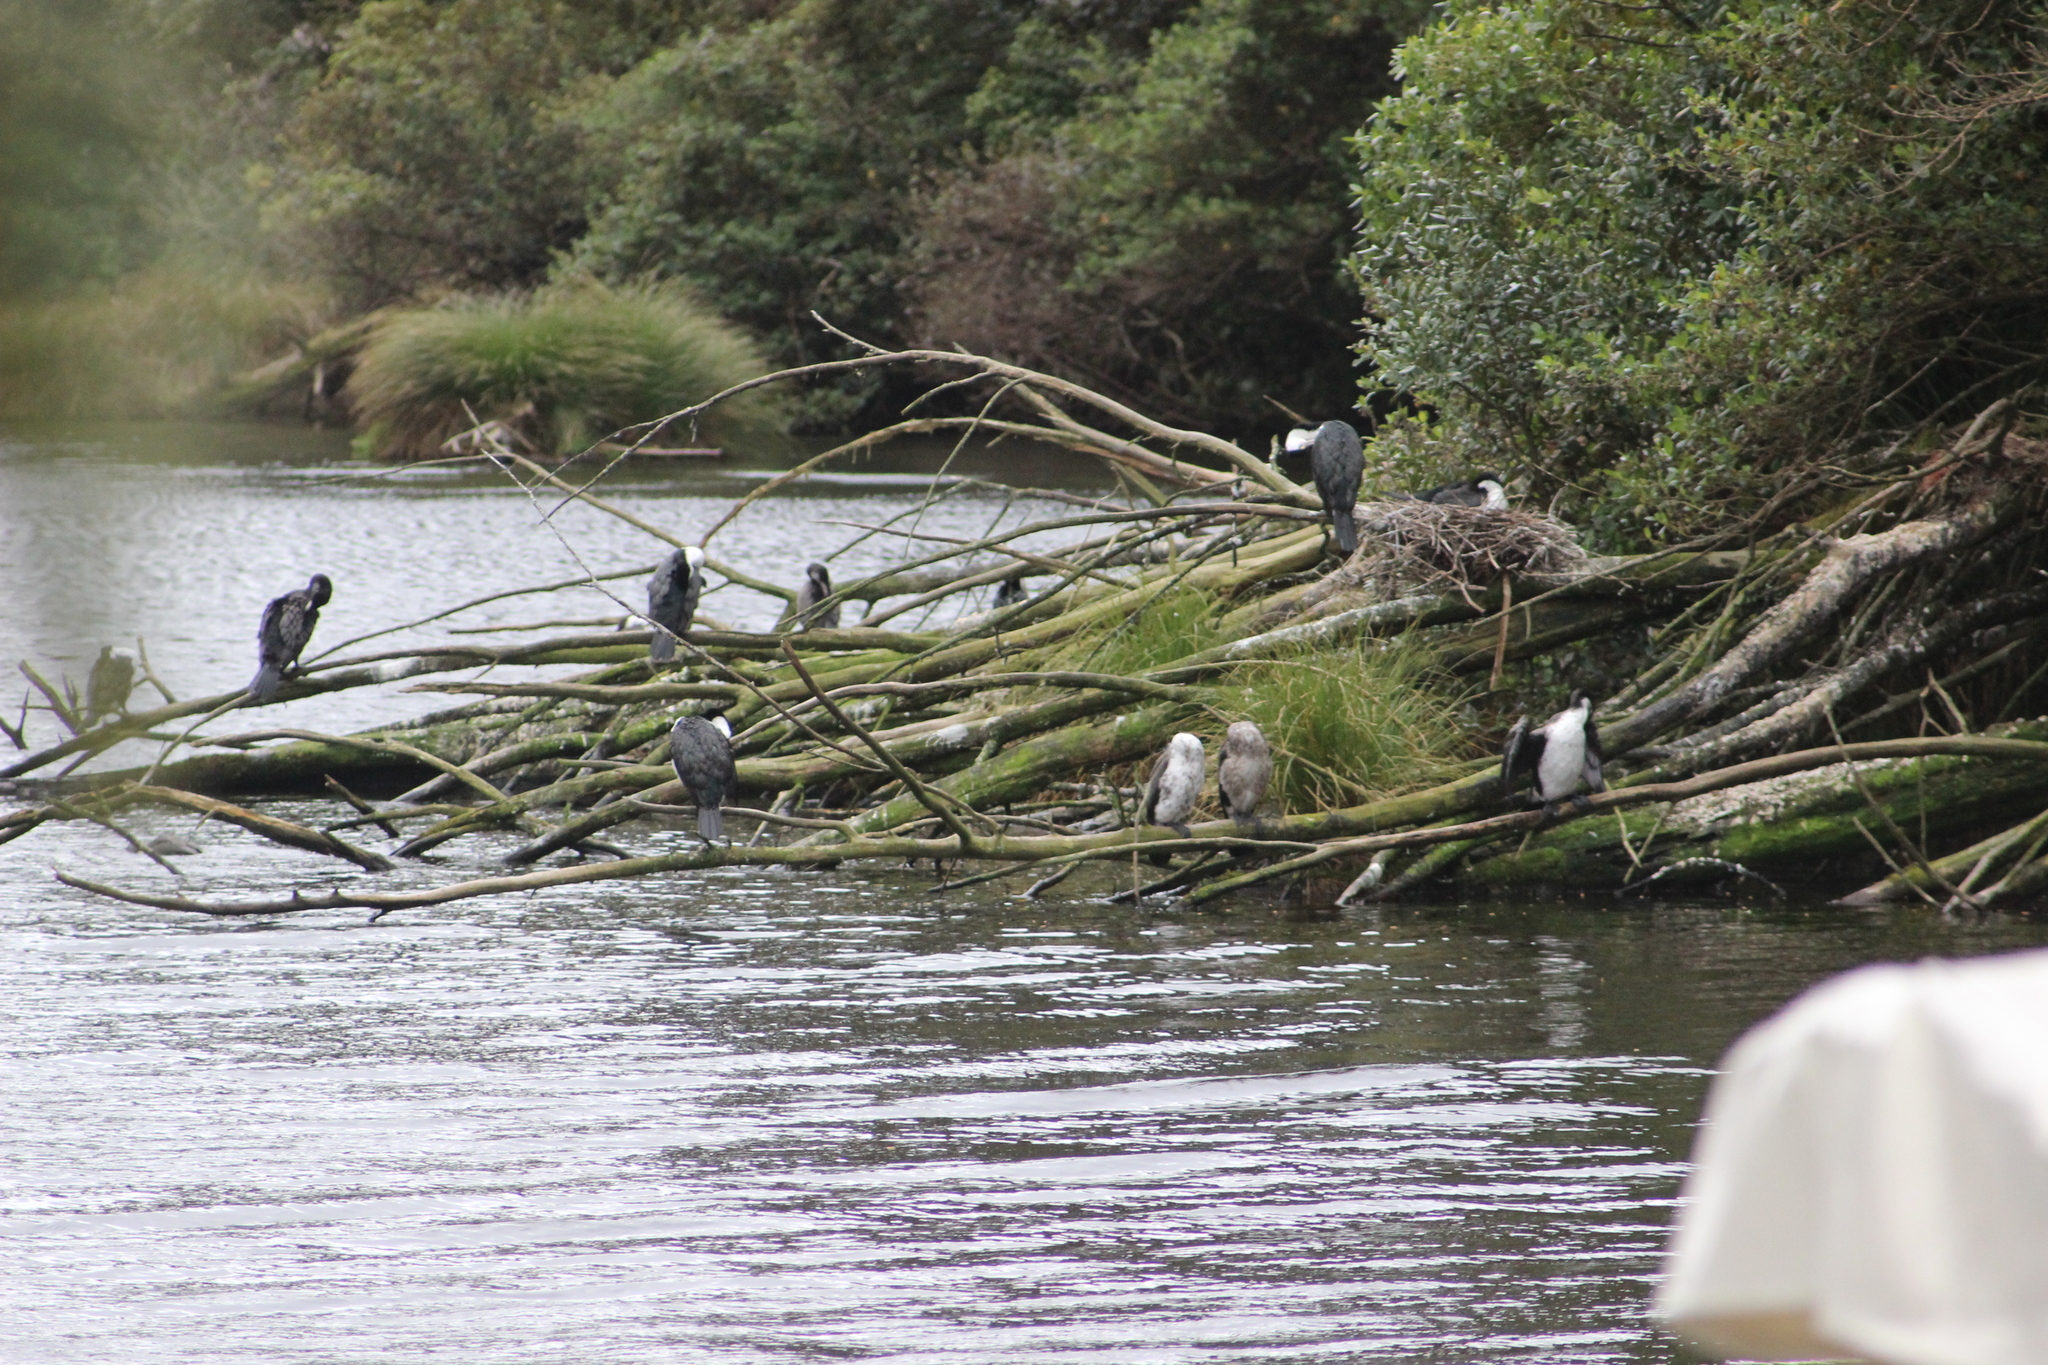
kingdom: Animalia
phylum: Chordata
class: Aves
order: Suliformes
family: Phalacrocoracidae
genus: Phalacrocorax
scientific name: Phalacrocorax varius
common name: Pied cormorant
